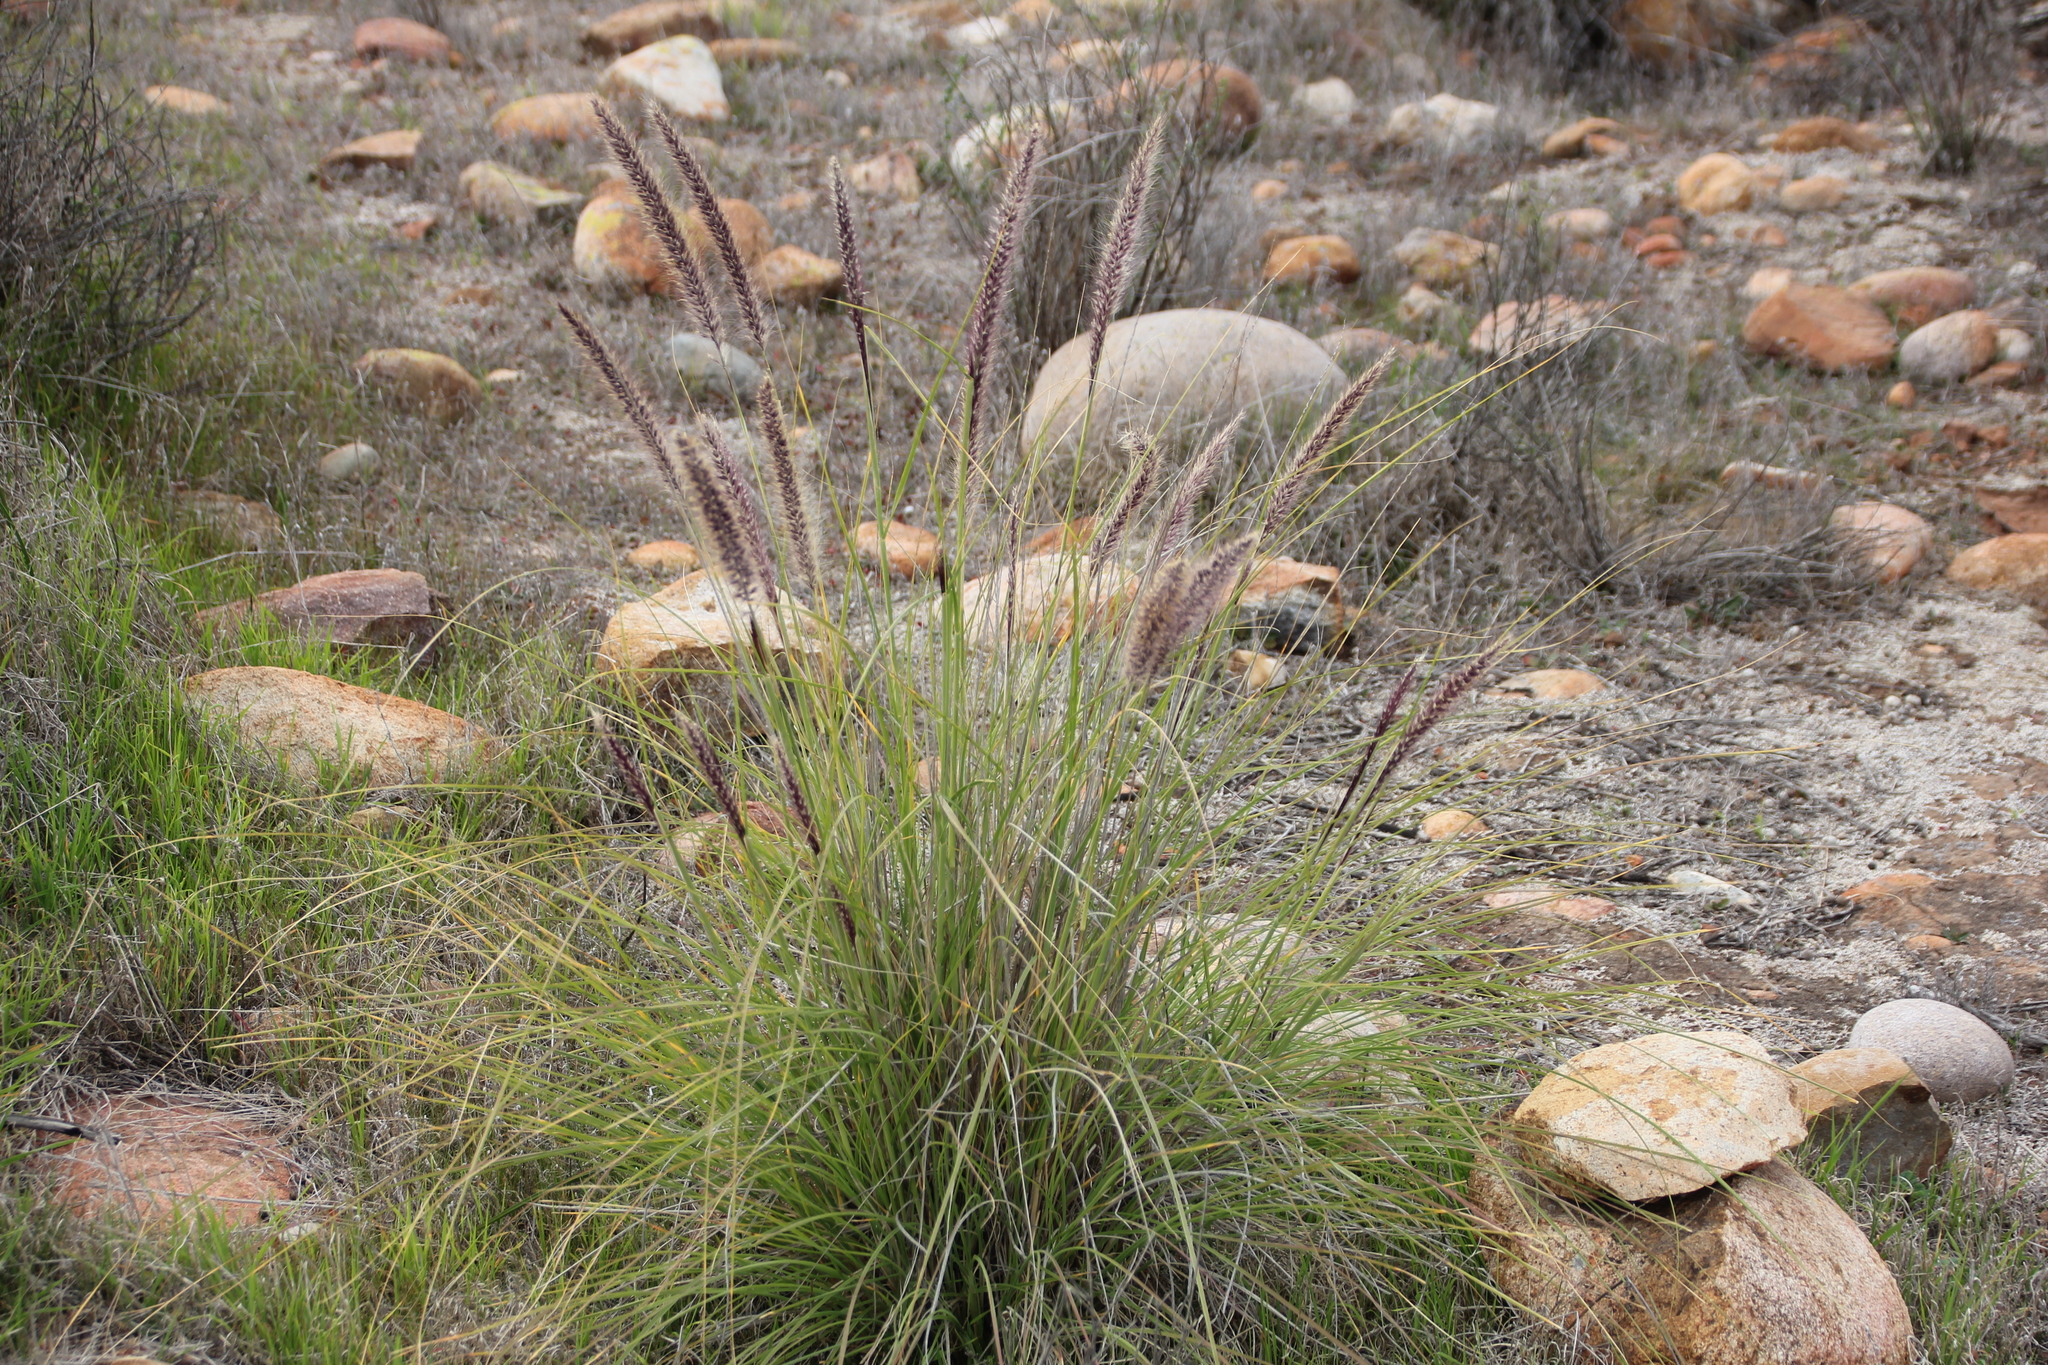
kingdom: Plantae
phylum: Tracheophyta
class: Liliopsida
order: Poales
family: Poaceae
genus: Cenchrus
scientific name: Cenchrus setaceus
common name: Crimson fountaingrass
